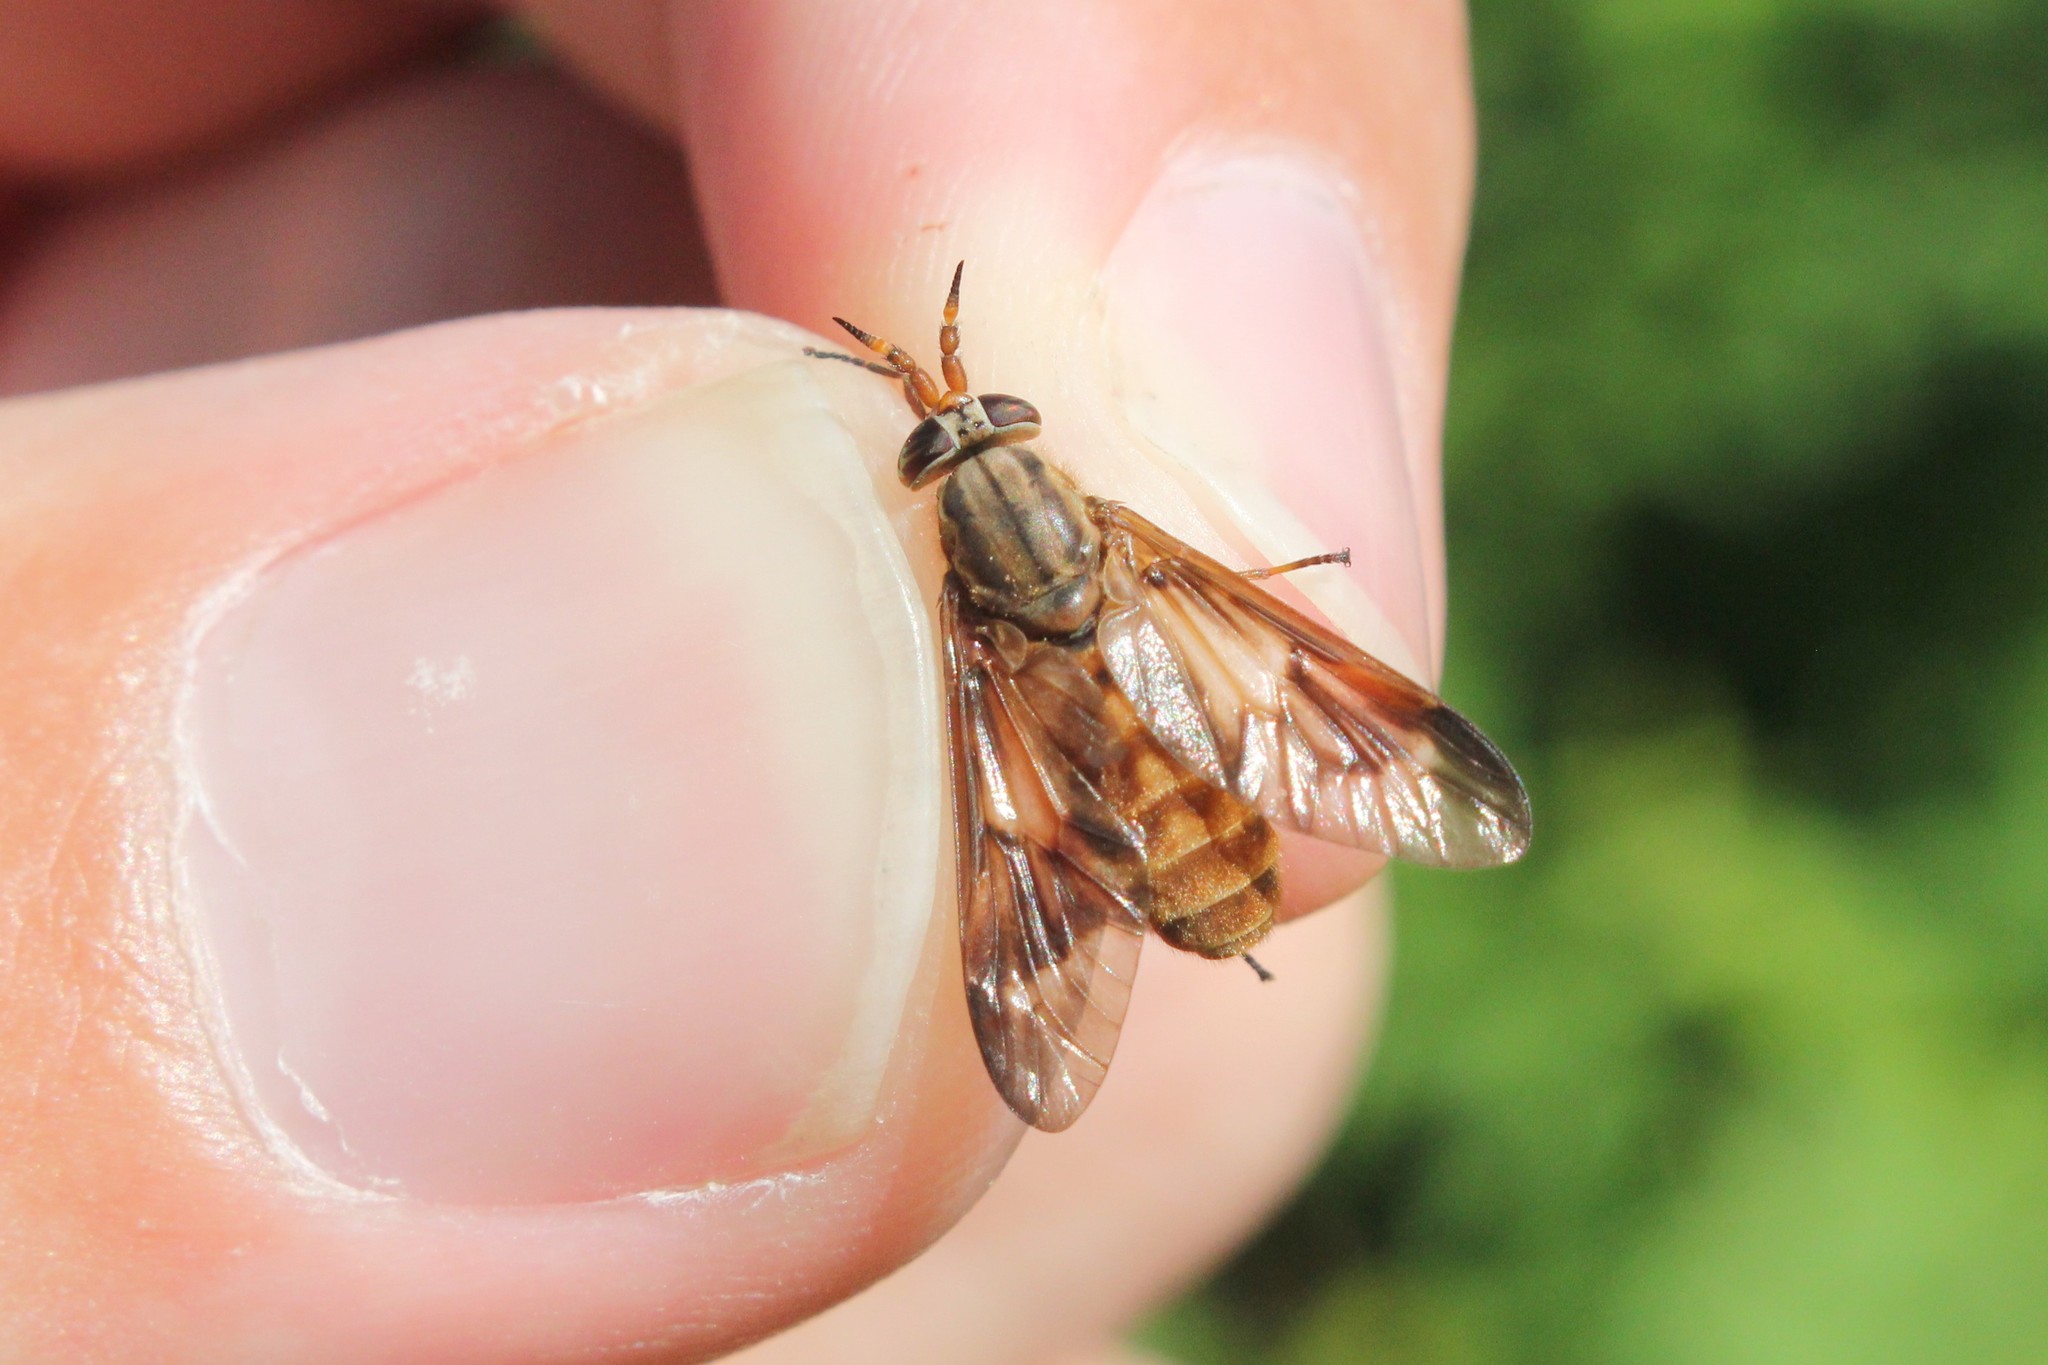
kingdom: Animalia
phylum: Arthropoda
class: Insecta
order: Diptera
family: Tabanidae
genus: Chrysops
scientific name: Chrysops brunneus
